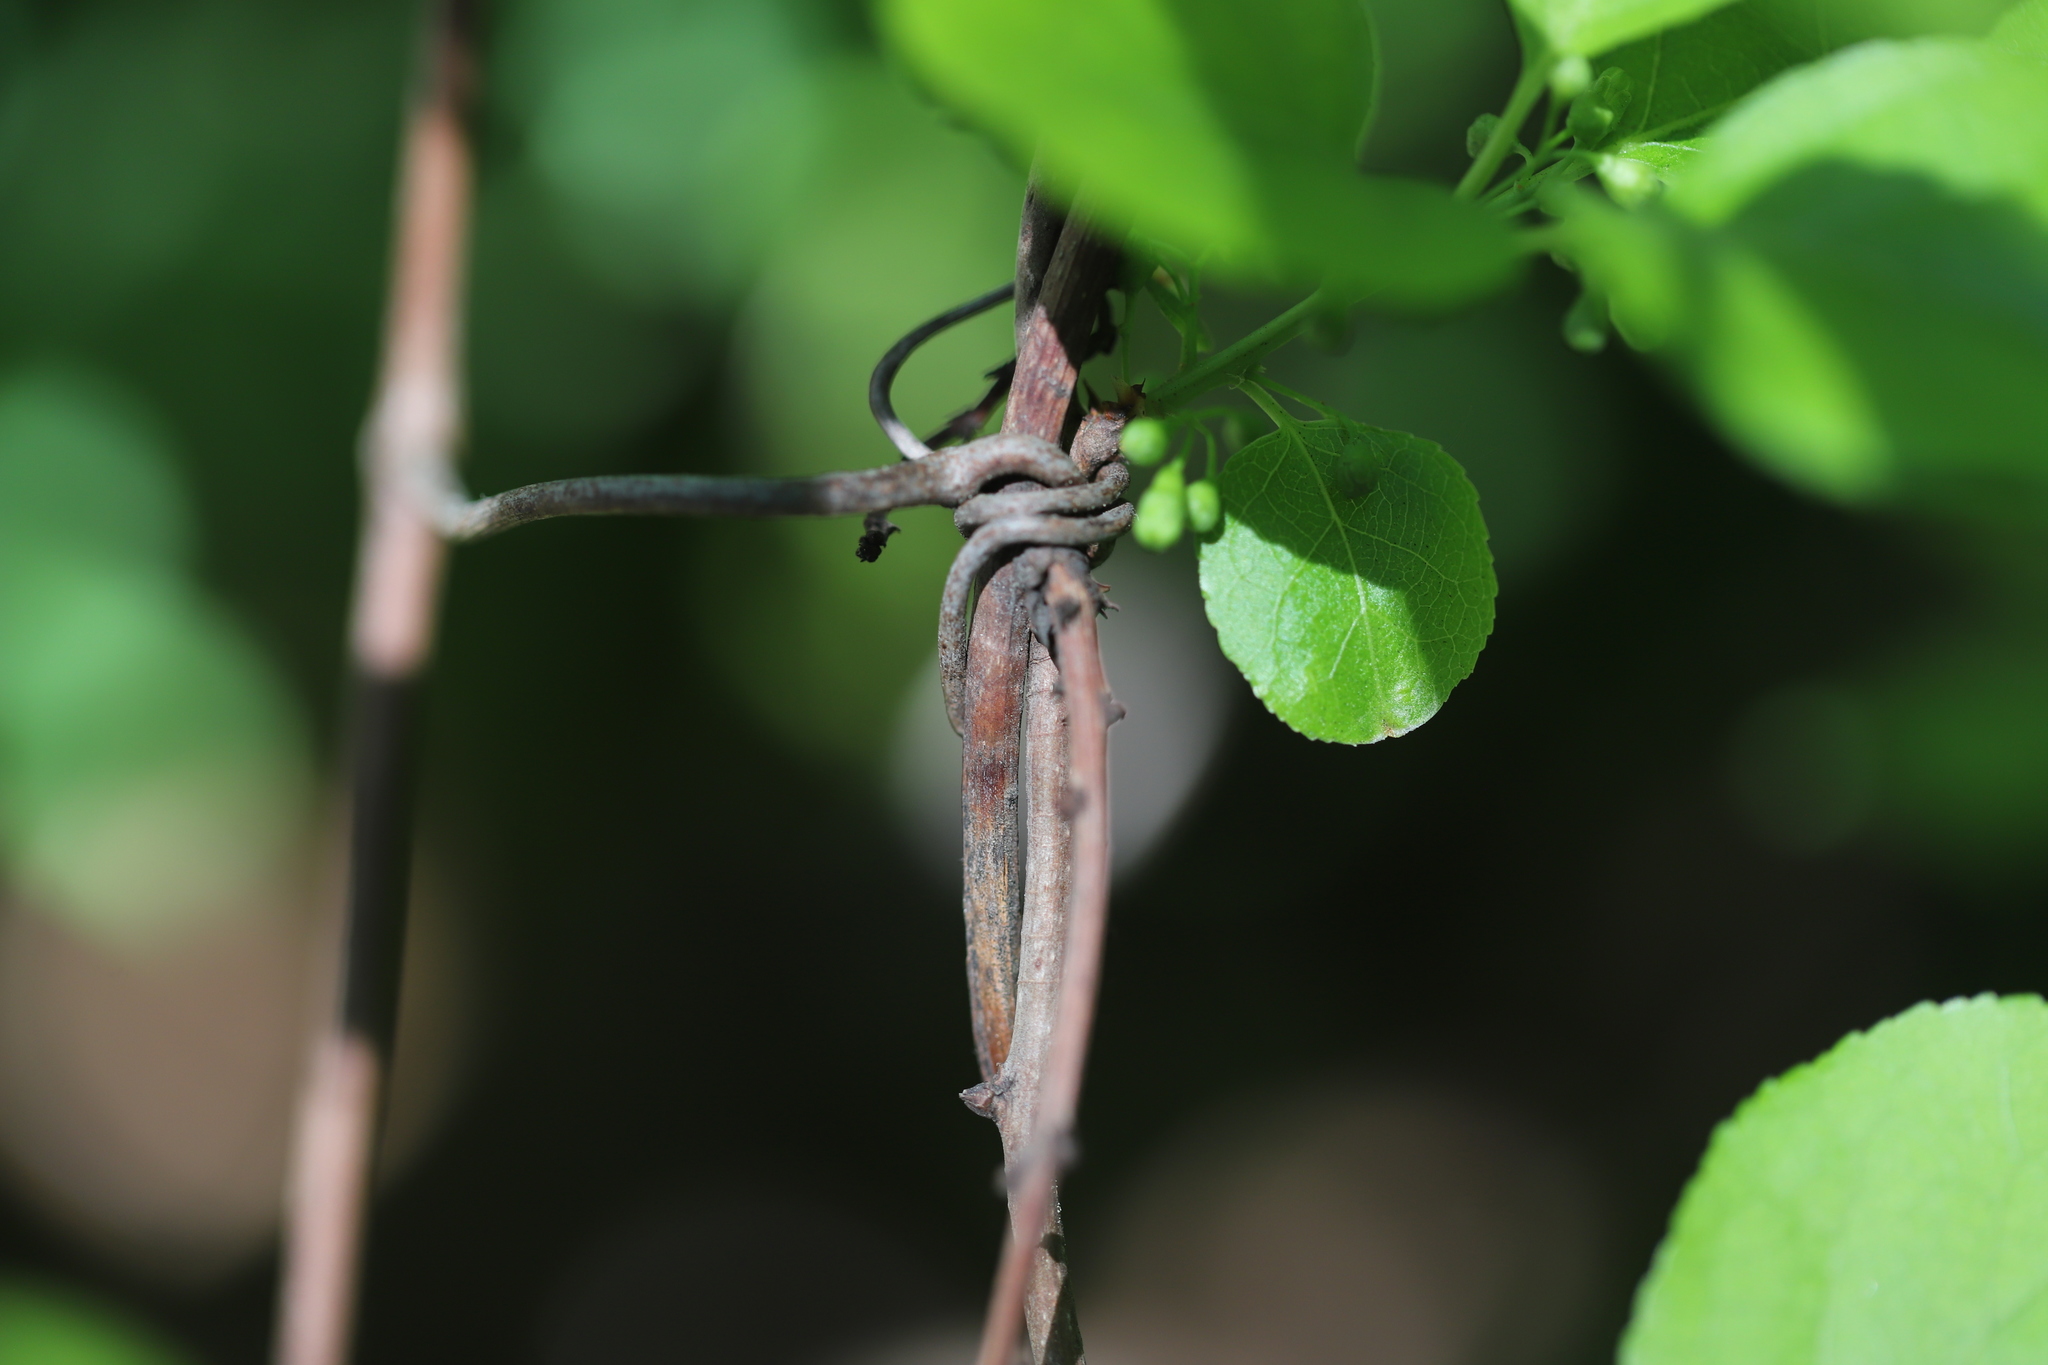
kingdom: Plantae
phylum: Tracheophyta
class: Magnoliopsida
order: Celastrales
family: Celastraceae
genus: Celastrus
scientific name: Celastrus orbiculatus
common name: Oriental bittersweet
